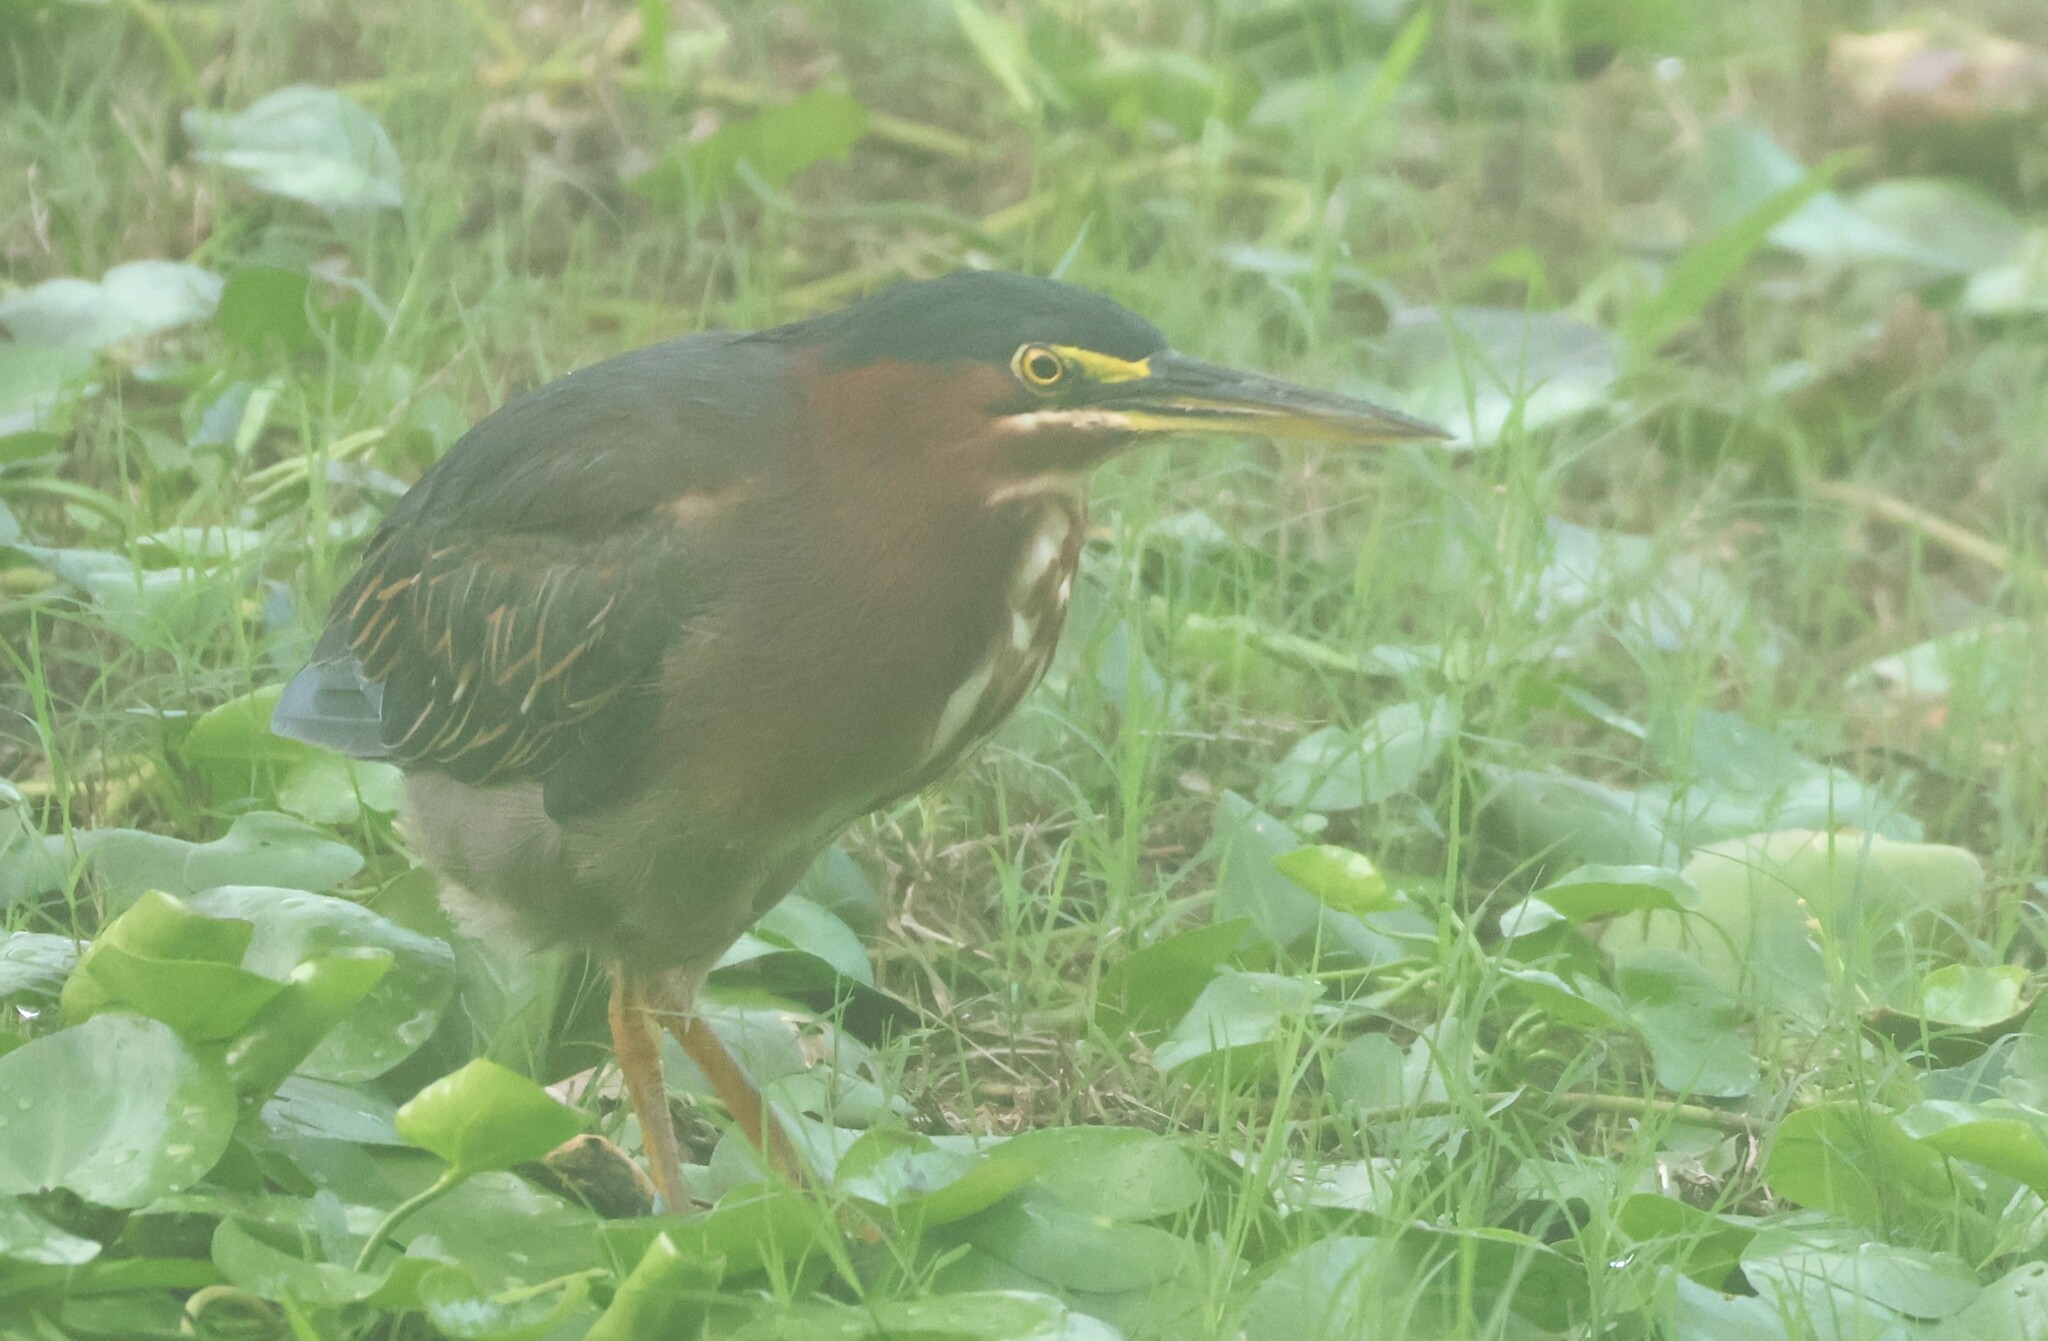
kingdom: Animalia
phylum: Chordata
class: Aves
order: Pelecaniformes
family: Ardeidae
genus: Butorides
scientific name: Butorides virescens
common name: Green heron
